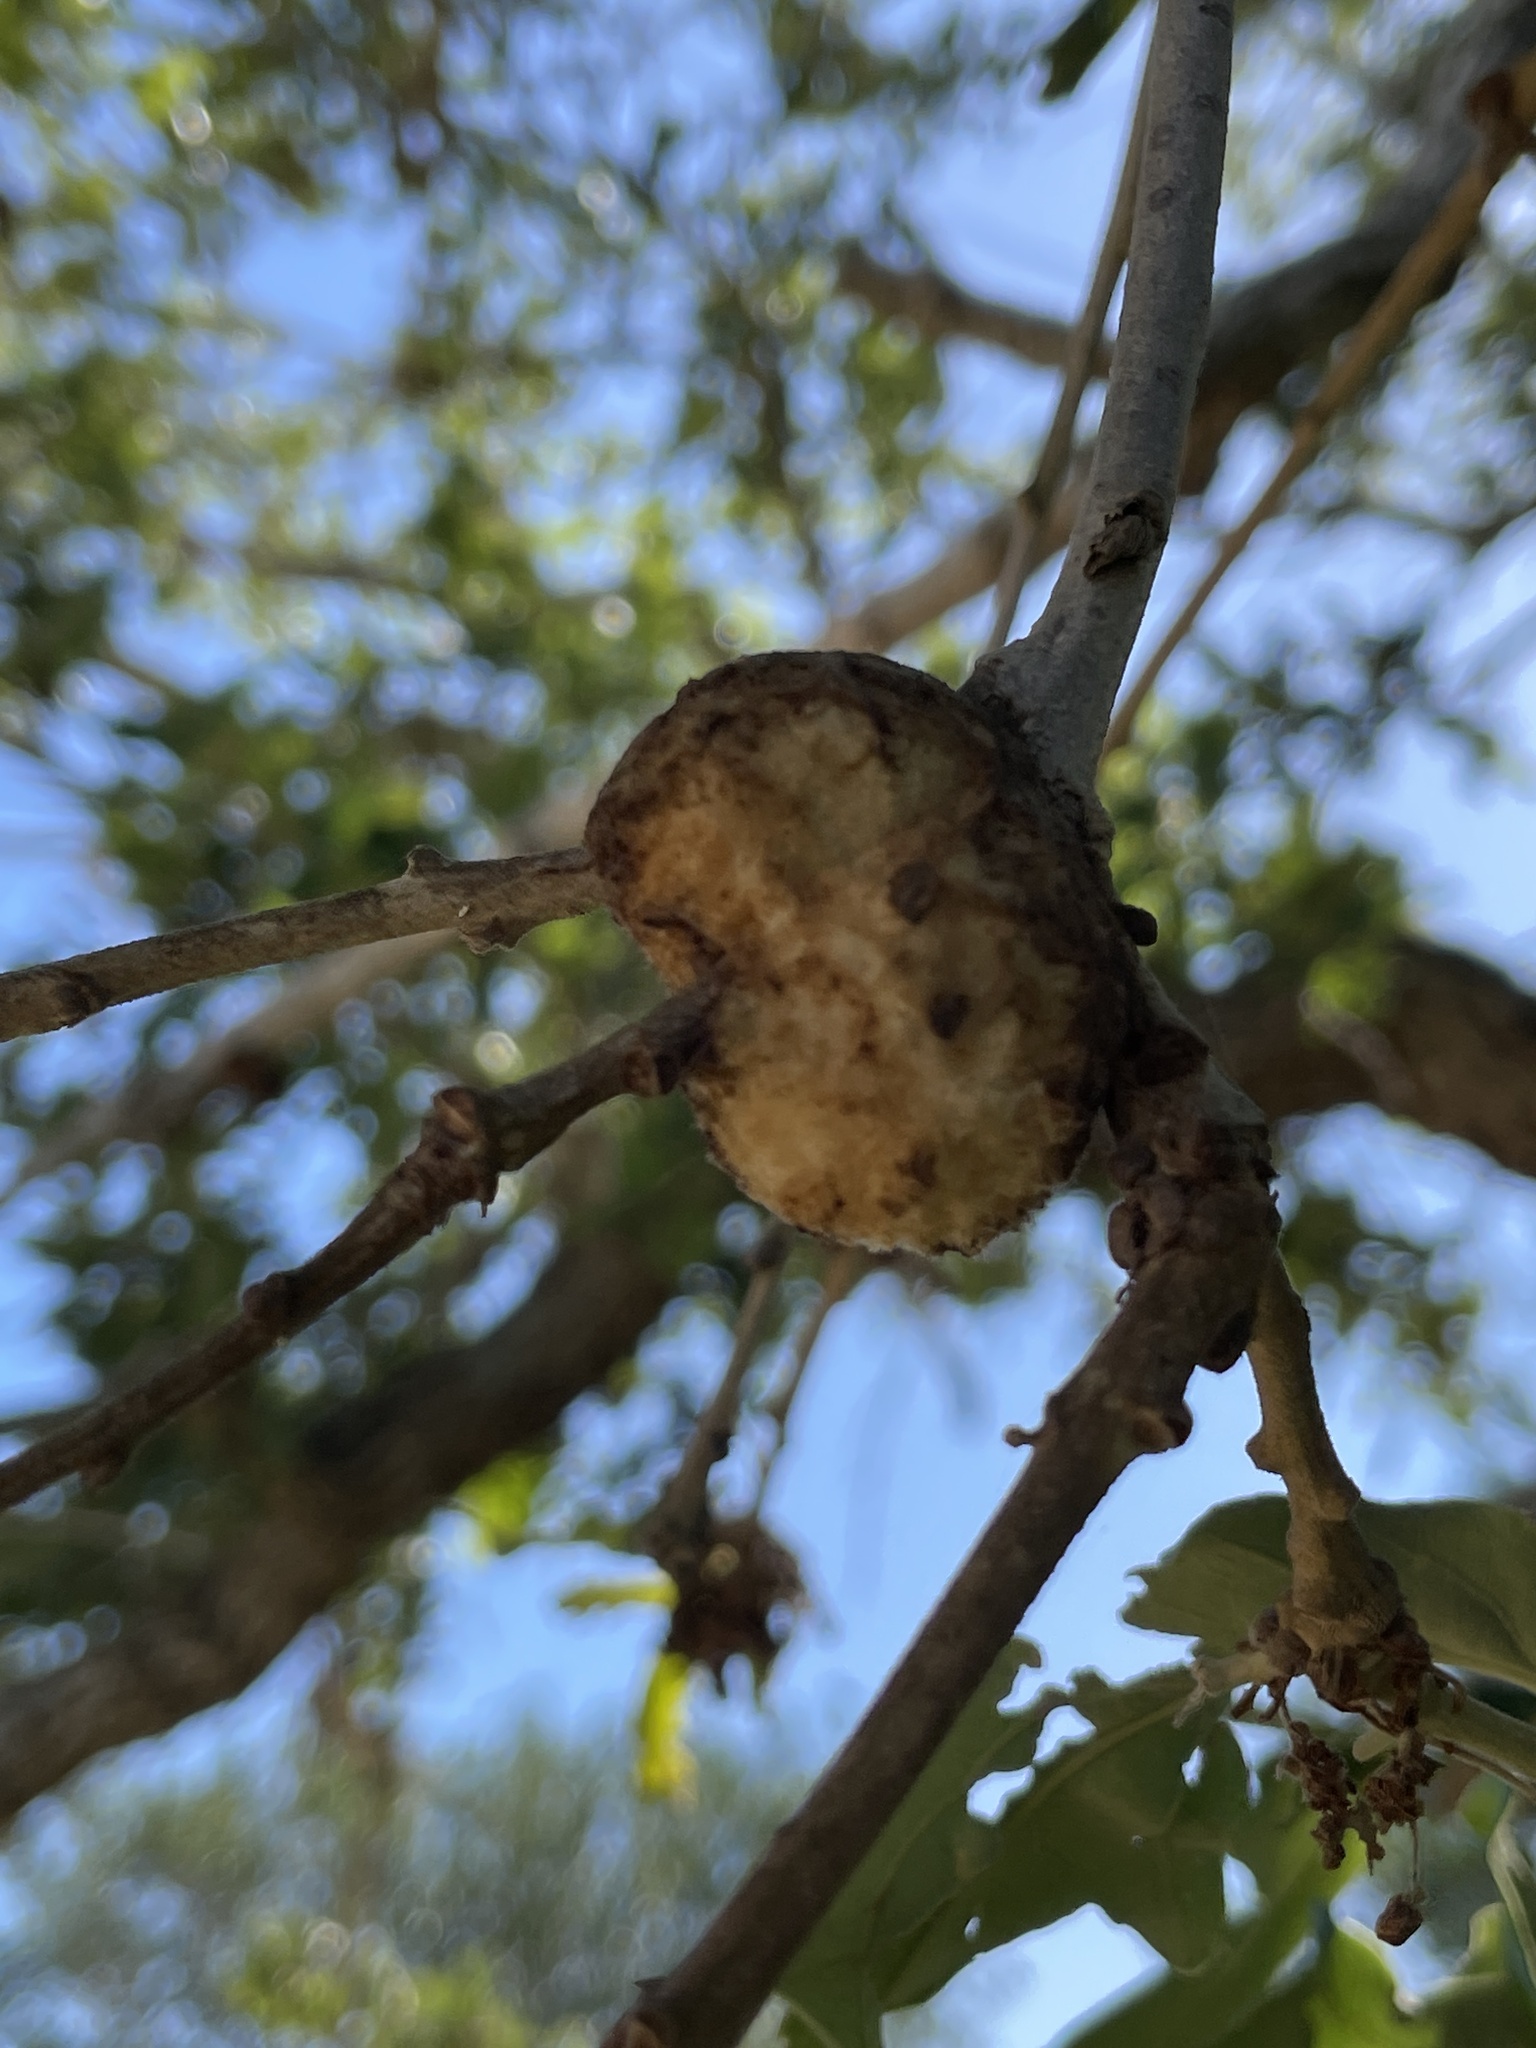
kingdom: Animalia
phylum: Arthropoda
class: Insecta
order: Hymenoptera
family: Cynipidae
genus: Striatoandricus
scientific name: Striatoandricus aciculatus
